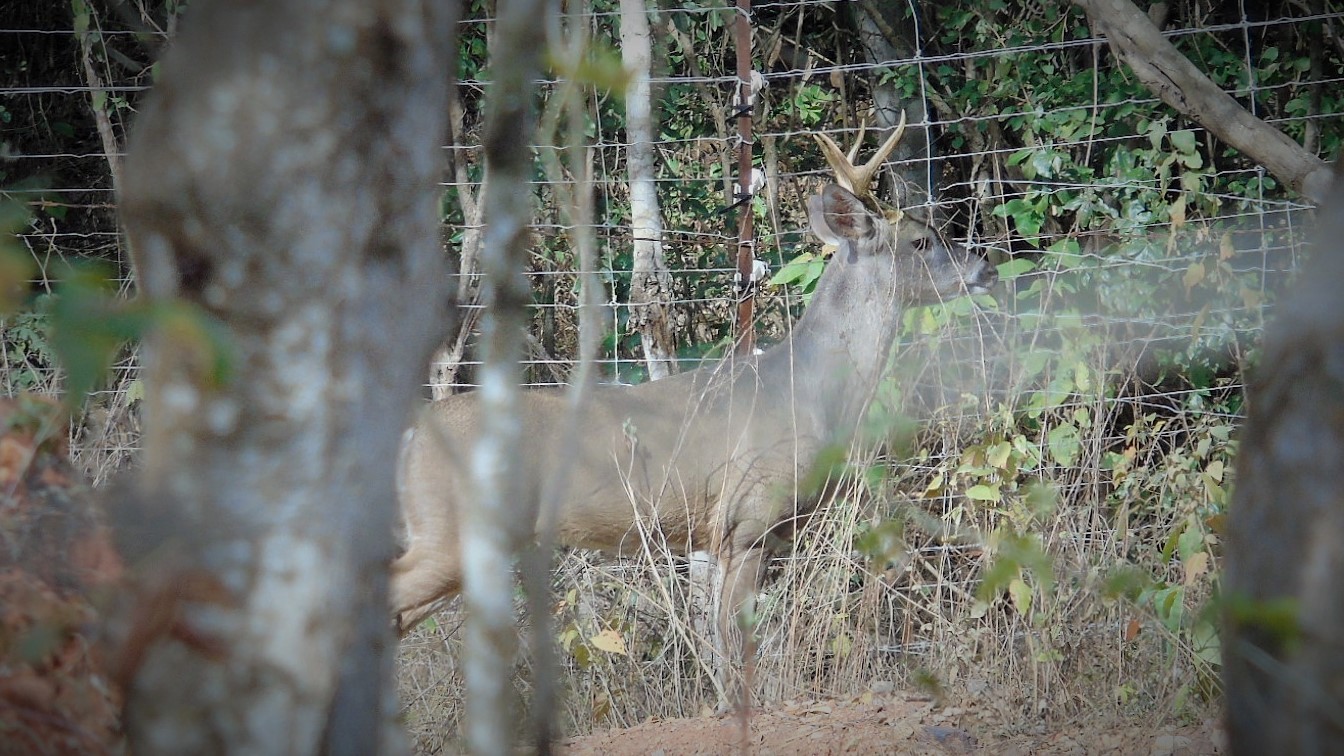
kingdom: Animalia
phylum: Chordata
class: Mammalia
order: Artiodactyla
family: Cervidae
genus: Odocoileus
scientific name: Odocoileus virginianus
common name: White-tailed deer
